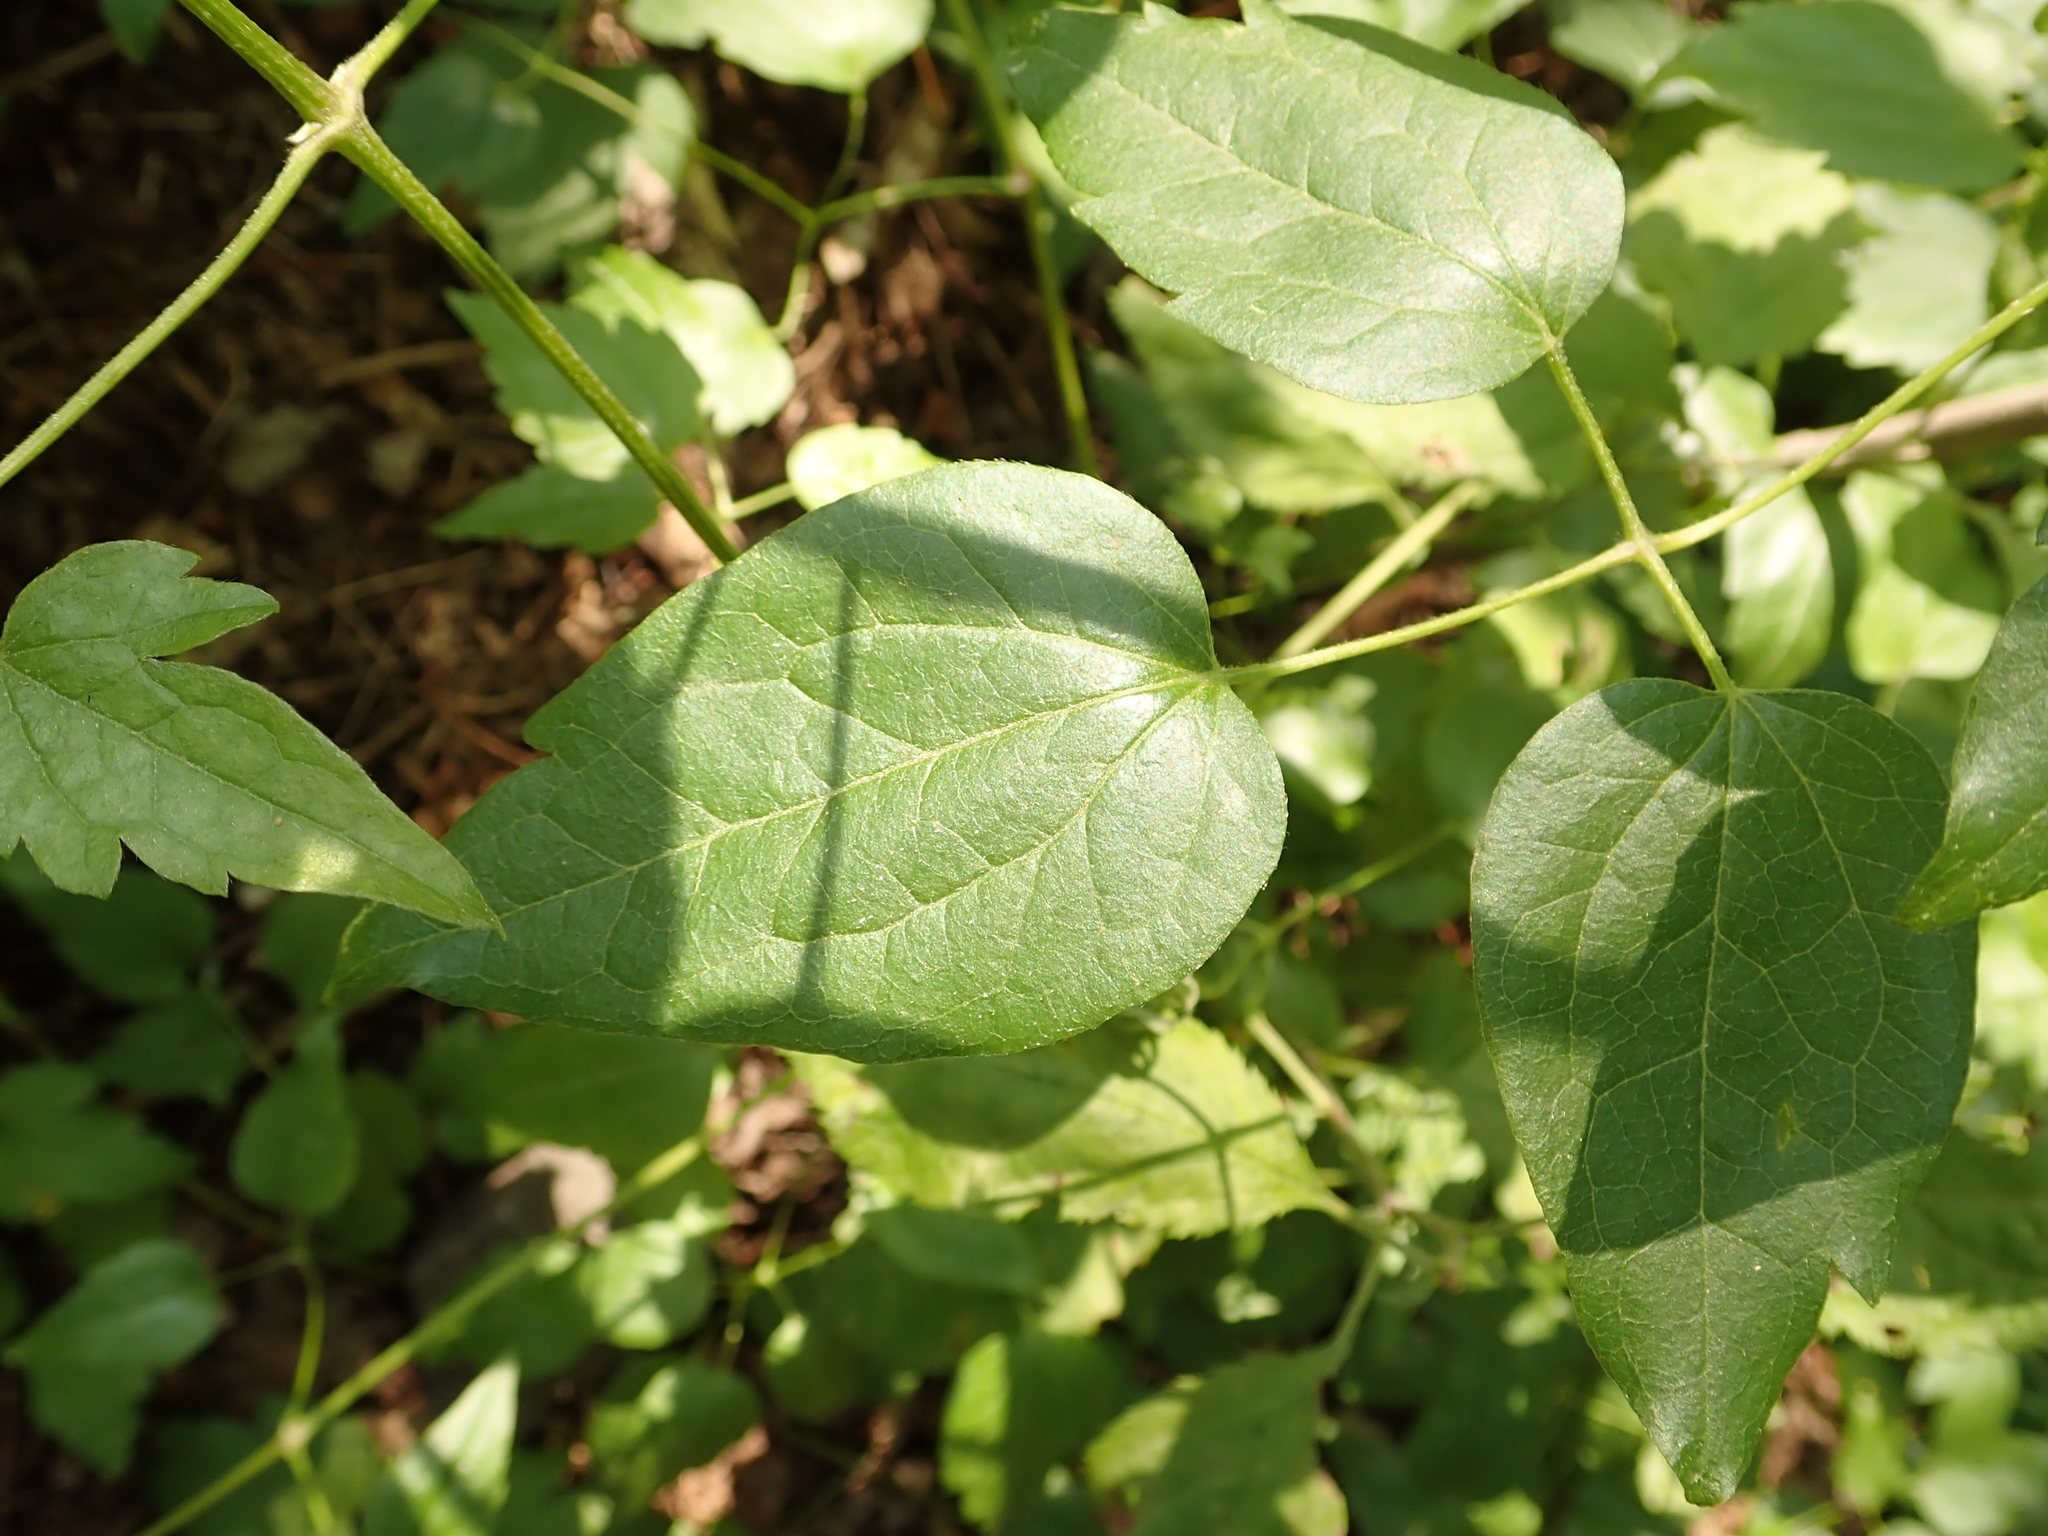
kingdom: Plantae
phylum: Tracheophyta
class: Magnoliopsida
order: Ranunculales
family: Ranunculaceae
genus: Clematis
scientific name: Clematis vitalba
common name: Evergreen clematis
